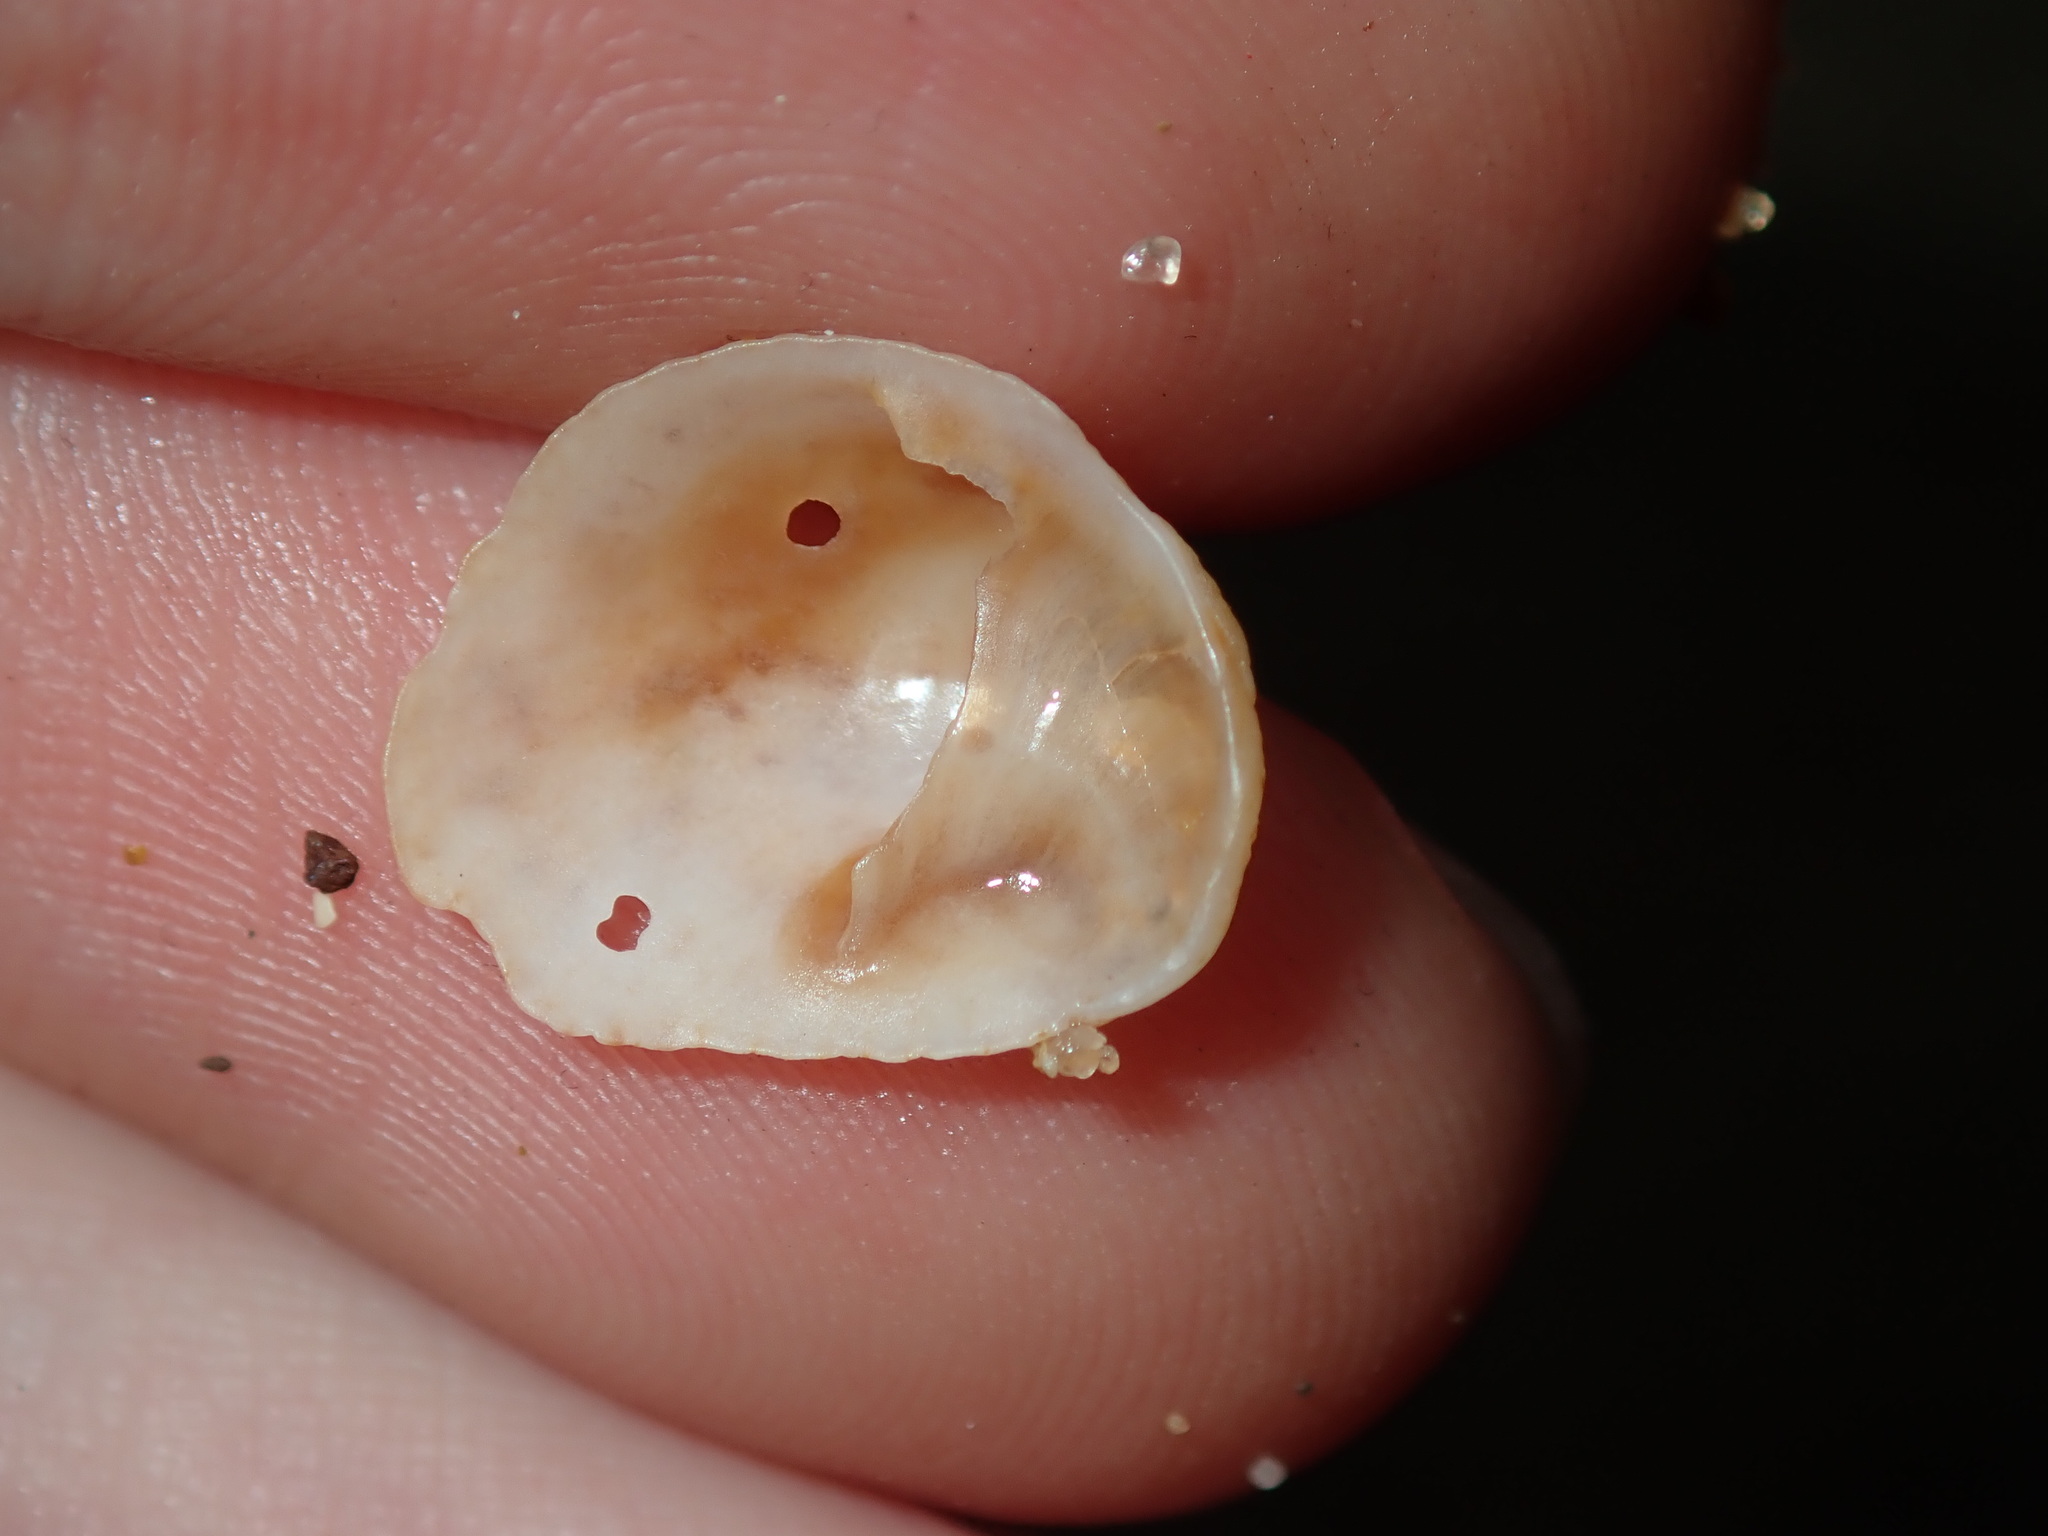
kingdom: Animalia
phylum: Mollusca
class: Gastropoda
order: Littorinimorpha
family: Calyptraeidae
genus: Bostrycapulus
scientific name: Bostrycapulus pritzkeri
